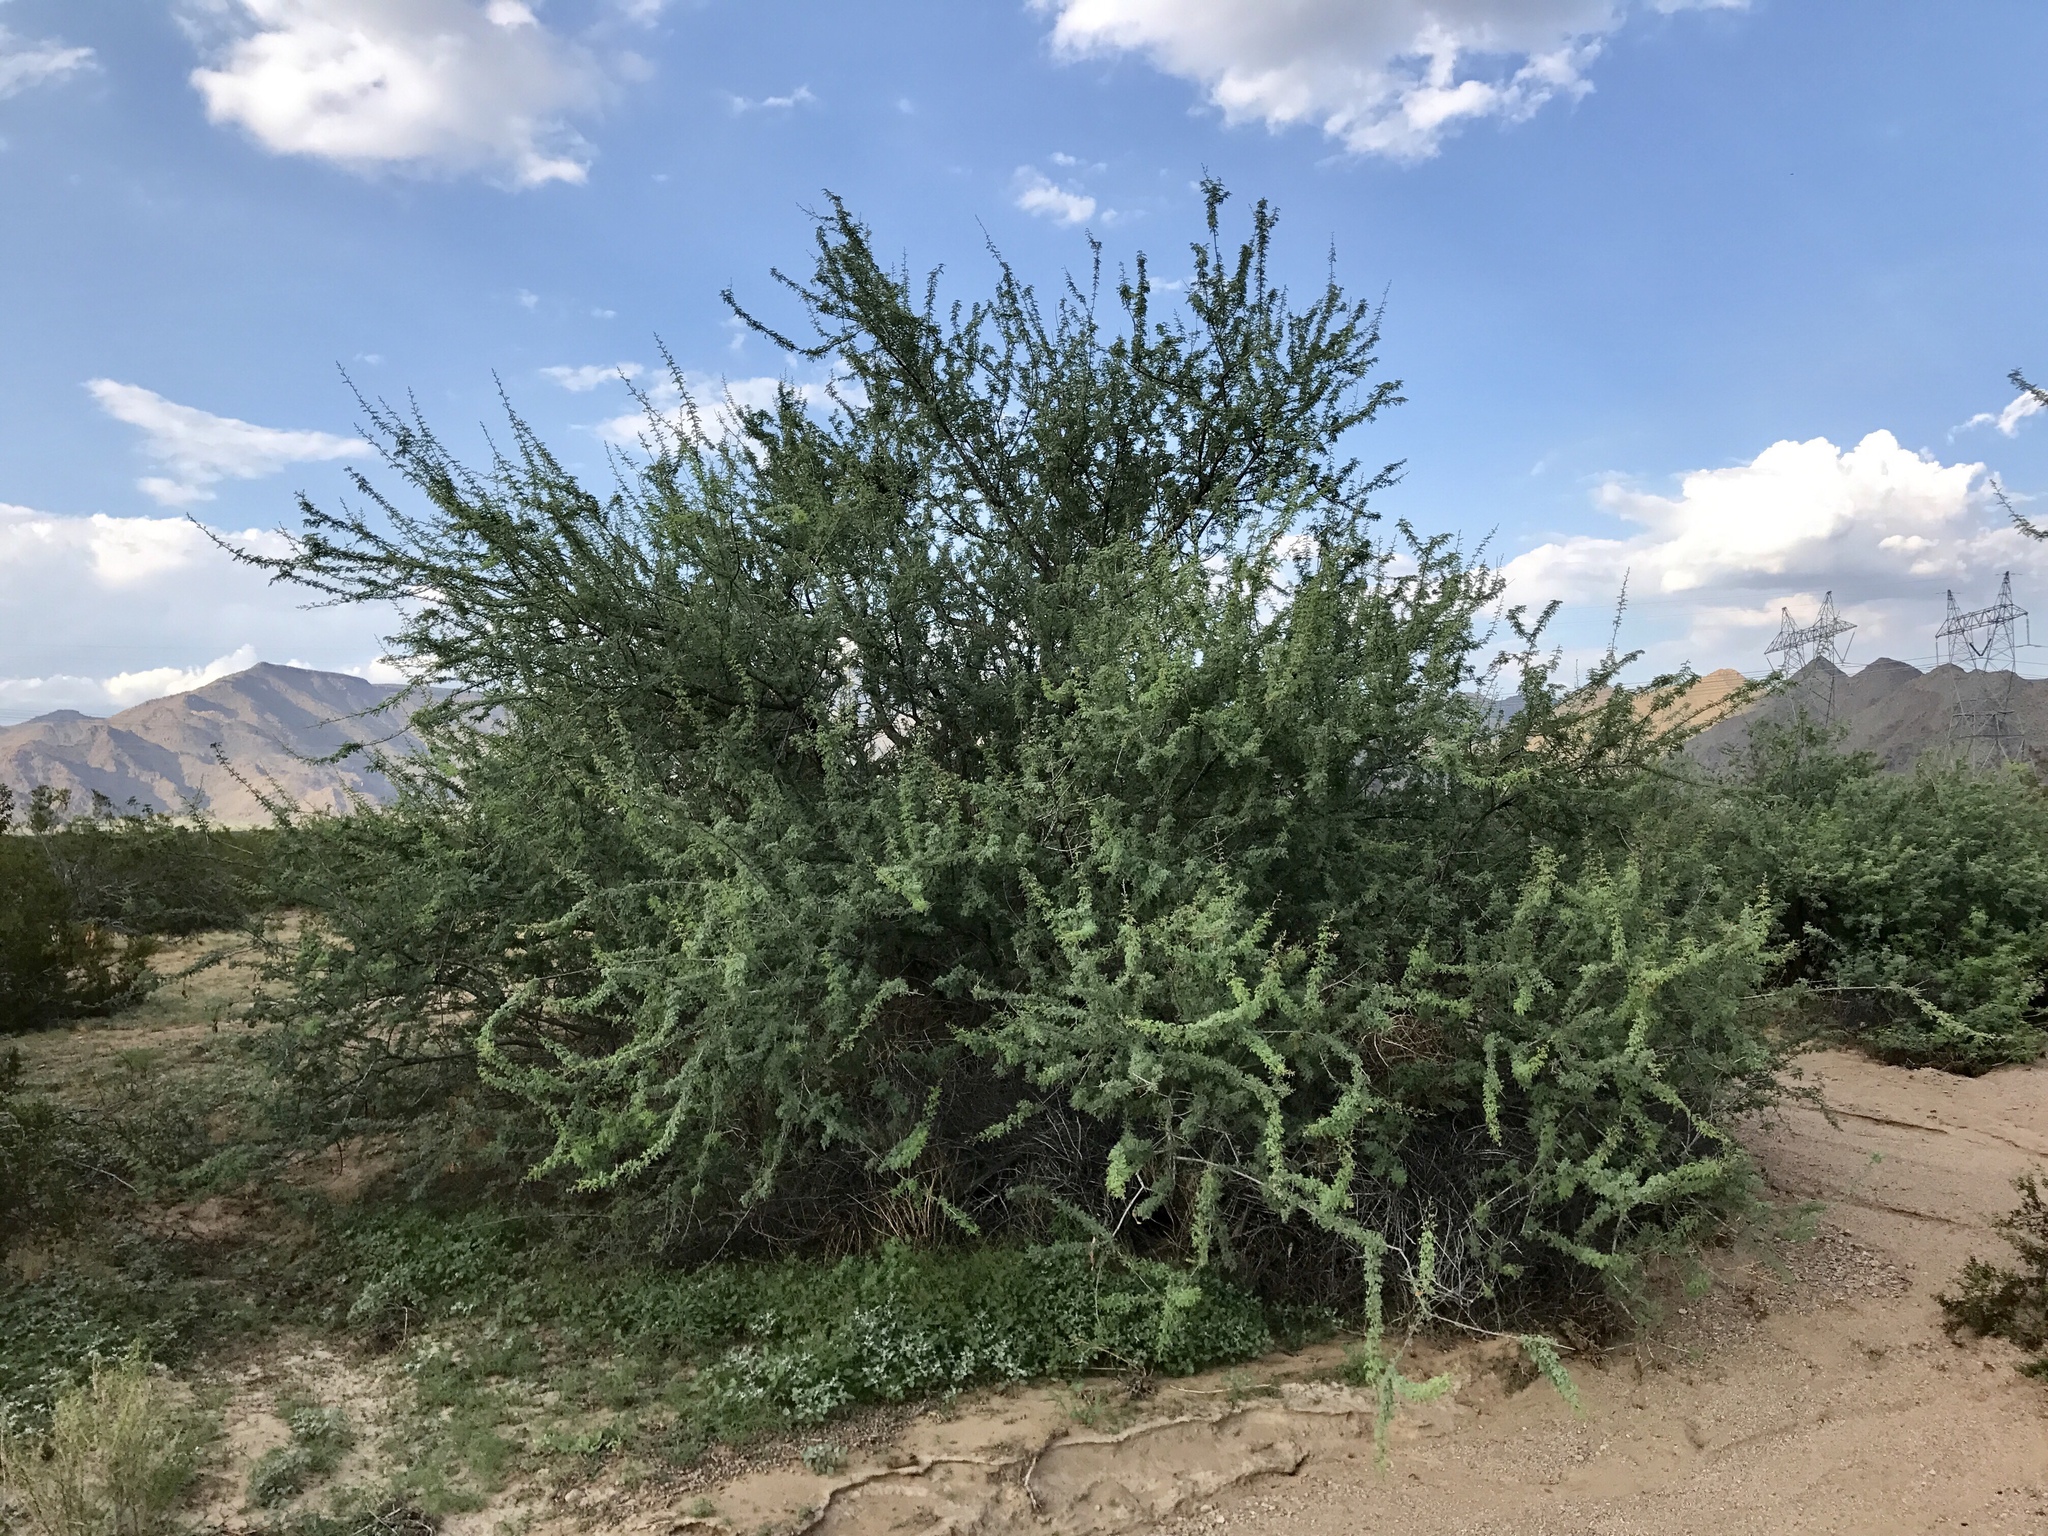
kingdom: Plantae
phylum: Tracheophyta
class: Magnoliopsida
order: Fabales
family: Fabaceae
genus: Senegalia
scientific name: Senegalia greggii
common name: Texas-mimosa
